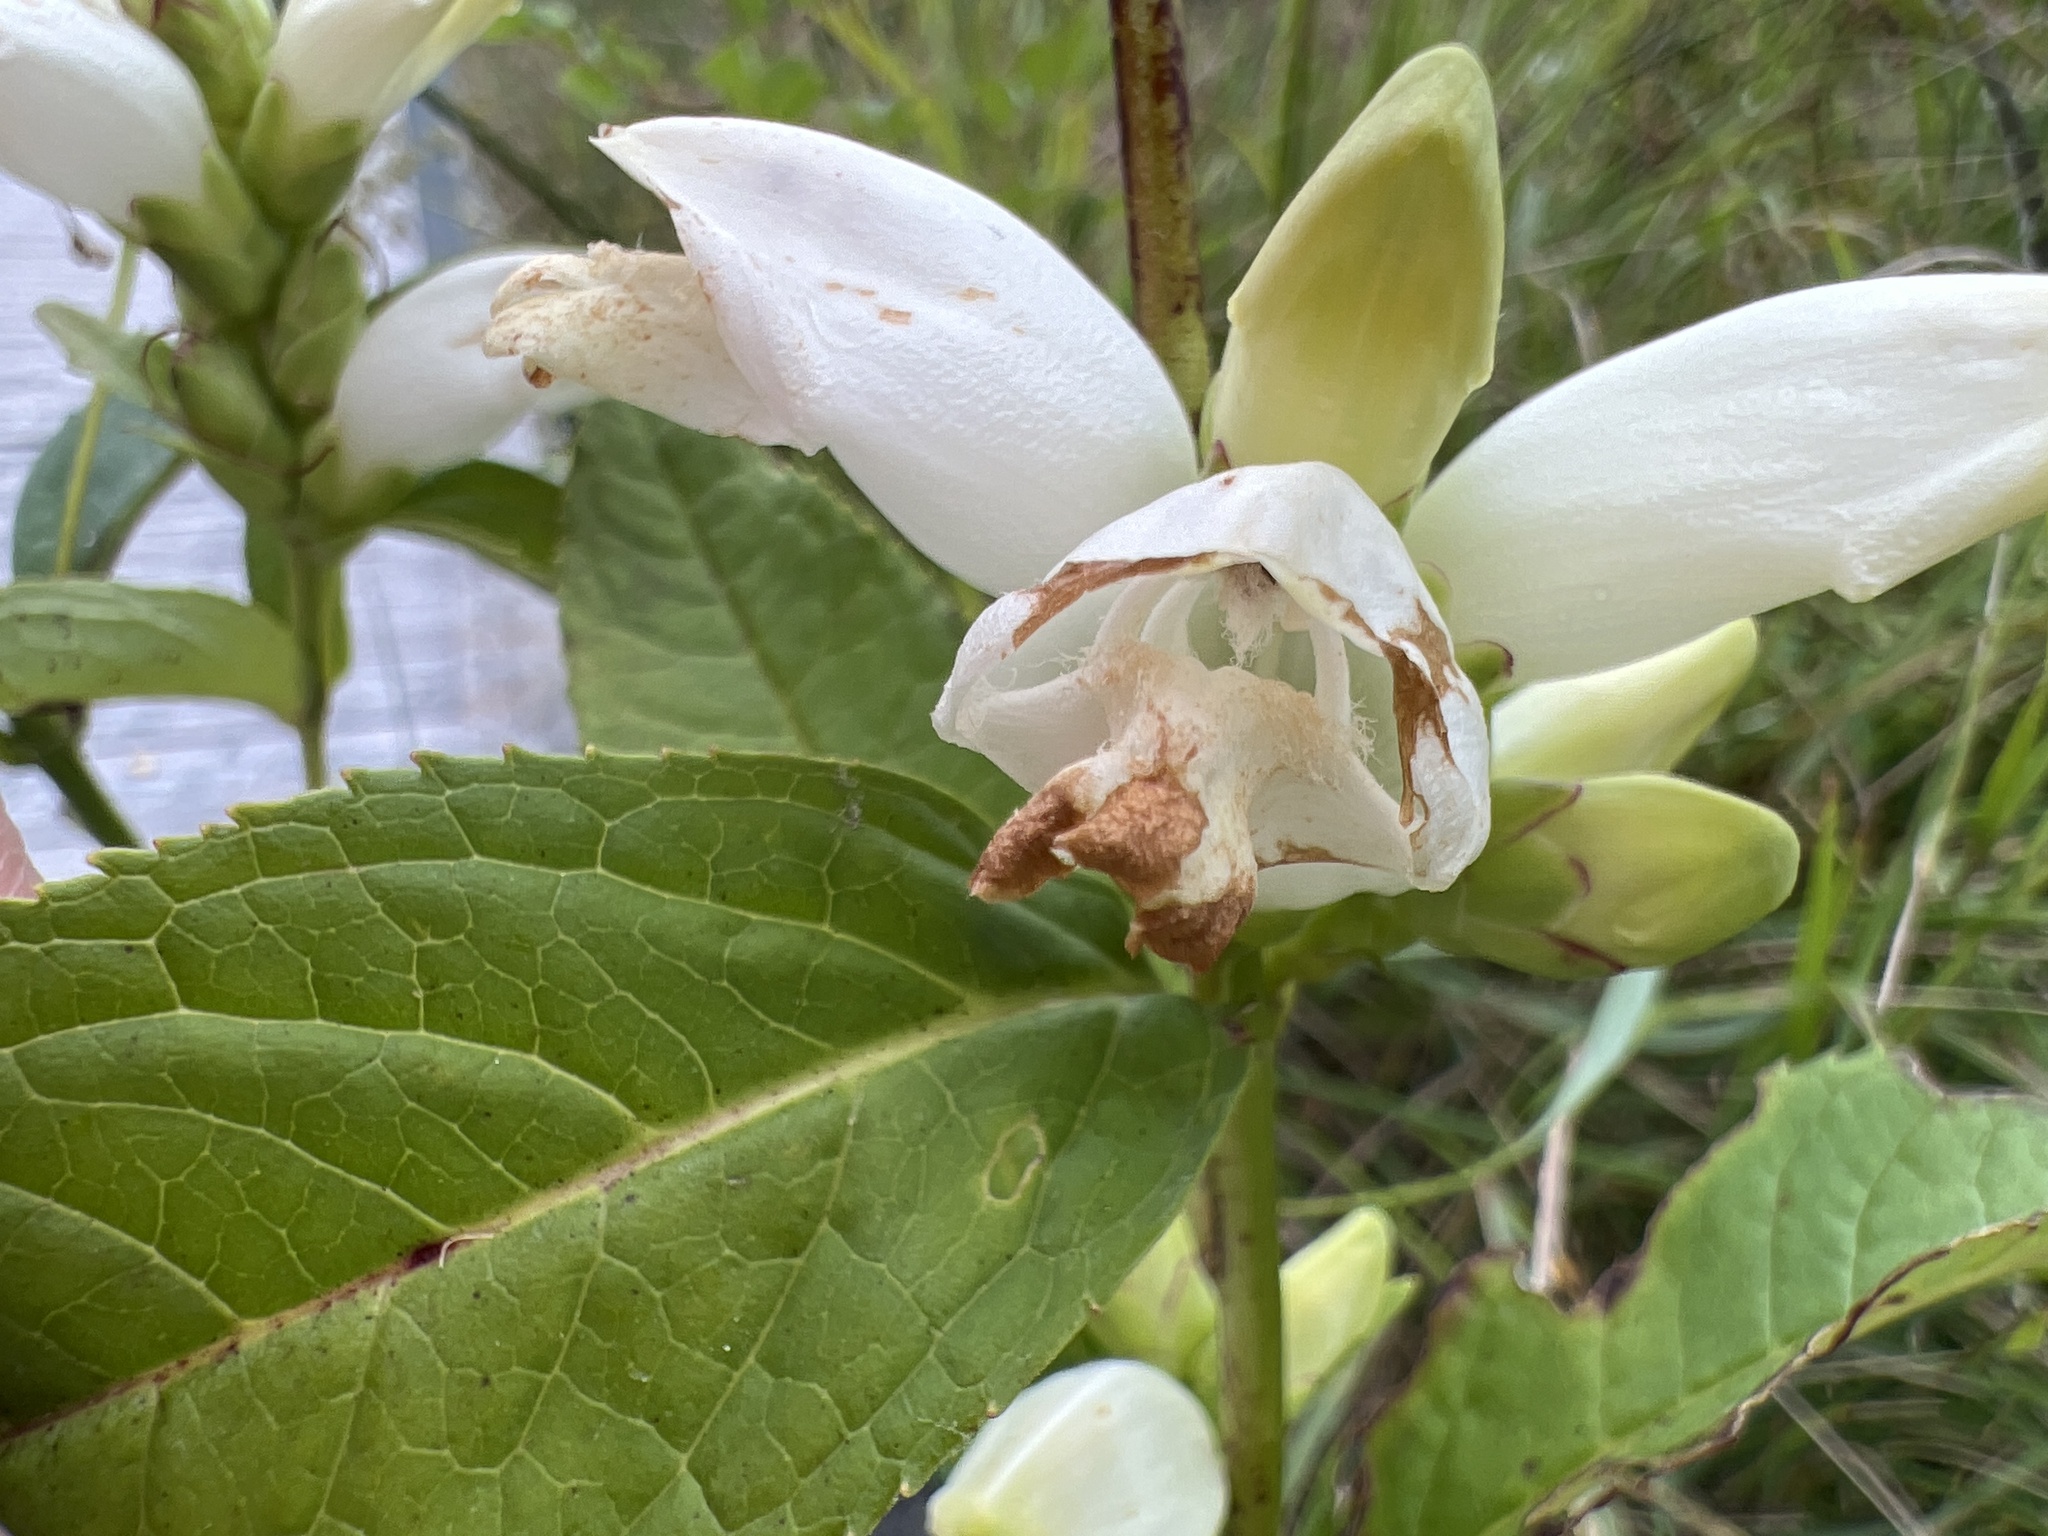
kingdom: Plantae
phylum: Tracheophyta
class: Magnoliopsida
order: Lamiales
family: Plantaginaceae
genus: Chelone
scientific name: Chelone glabra
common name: Snakehead
